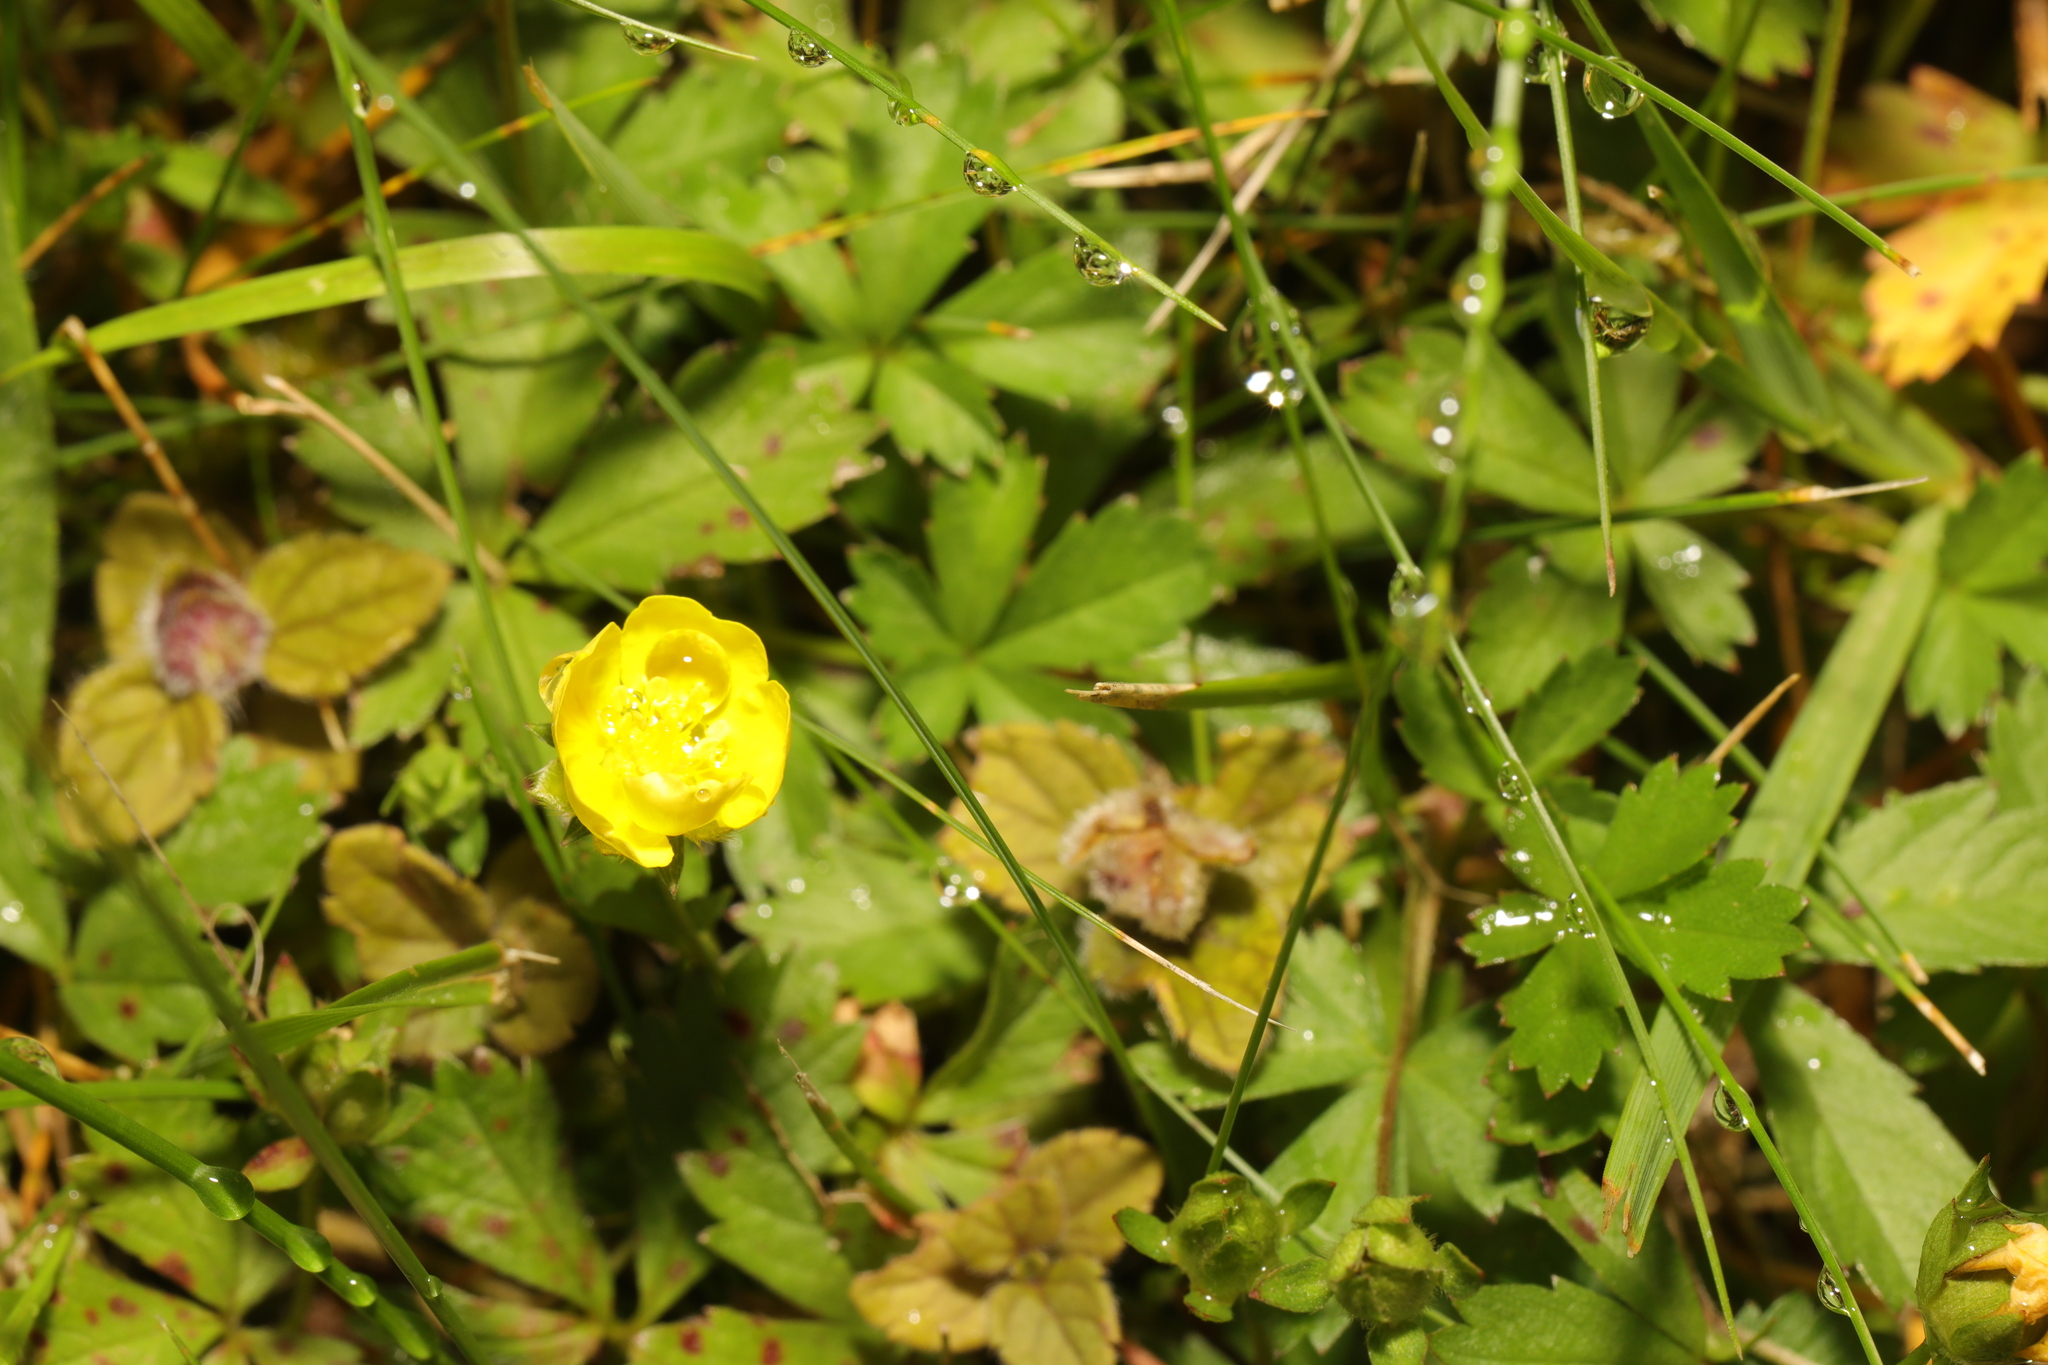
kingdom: Plantae
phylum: Tracheophyta
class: Magnoliopsida
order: Rosales
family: Rosaceae
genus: Potentilla
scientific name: Potentilla reptans
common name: Creeping cinquefoil
